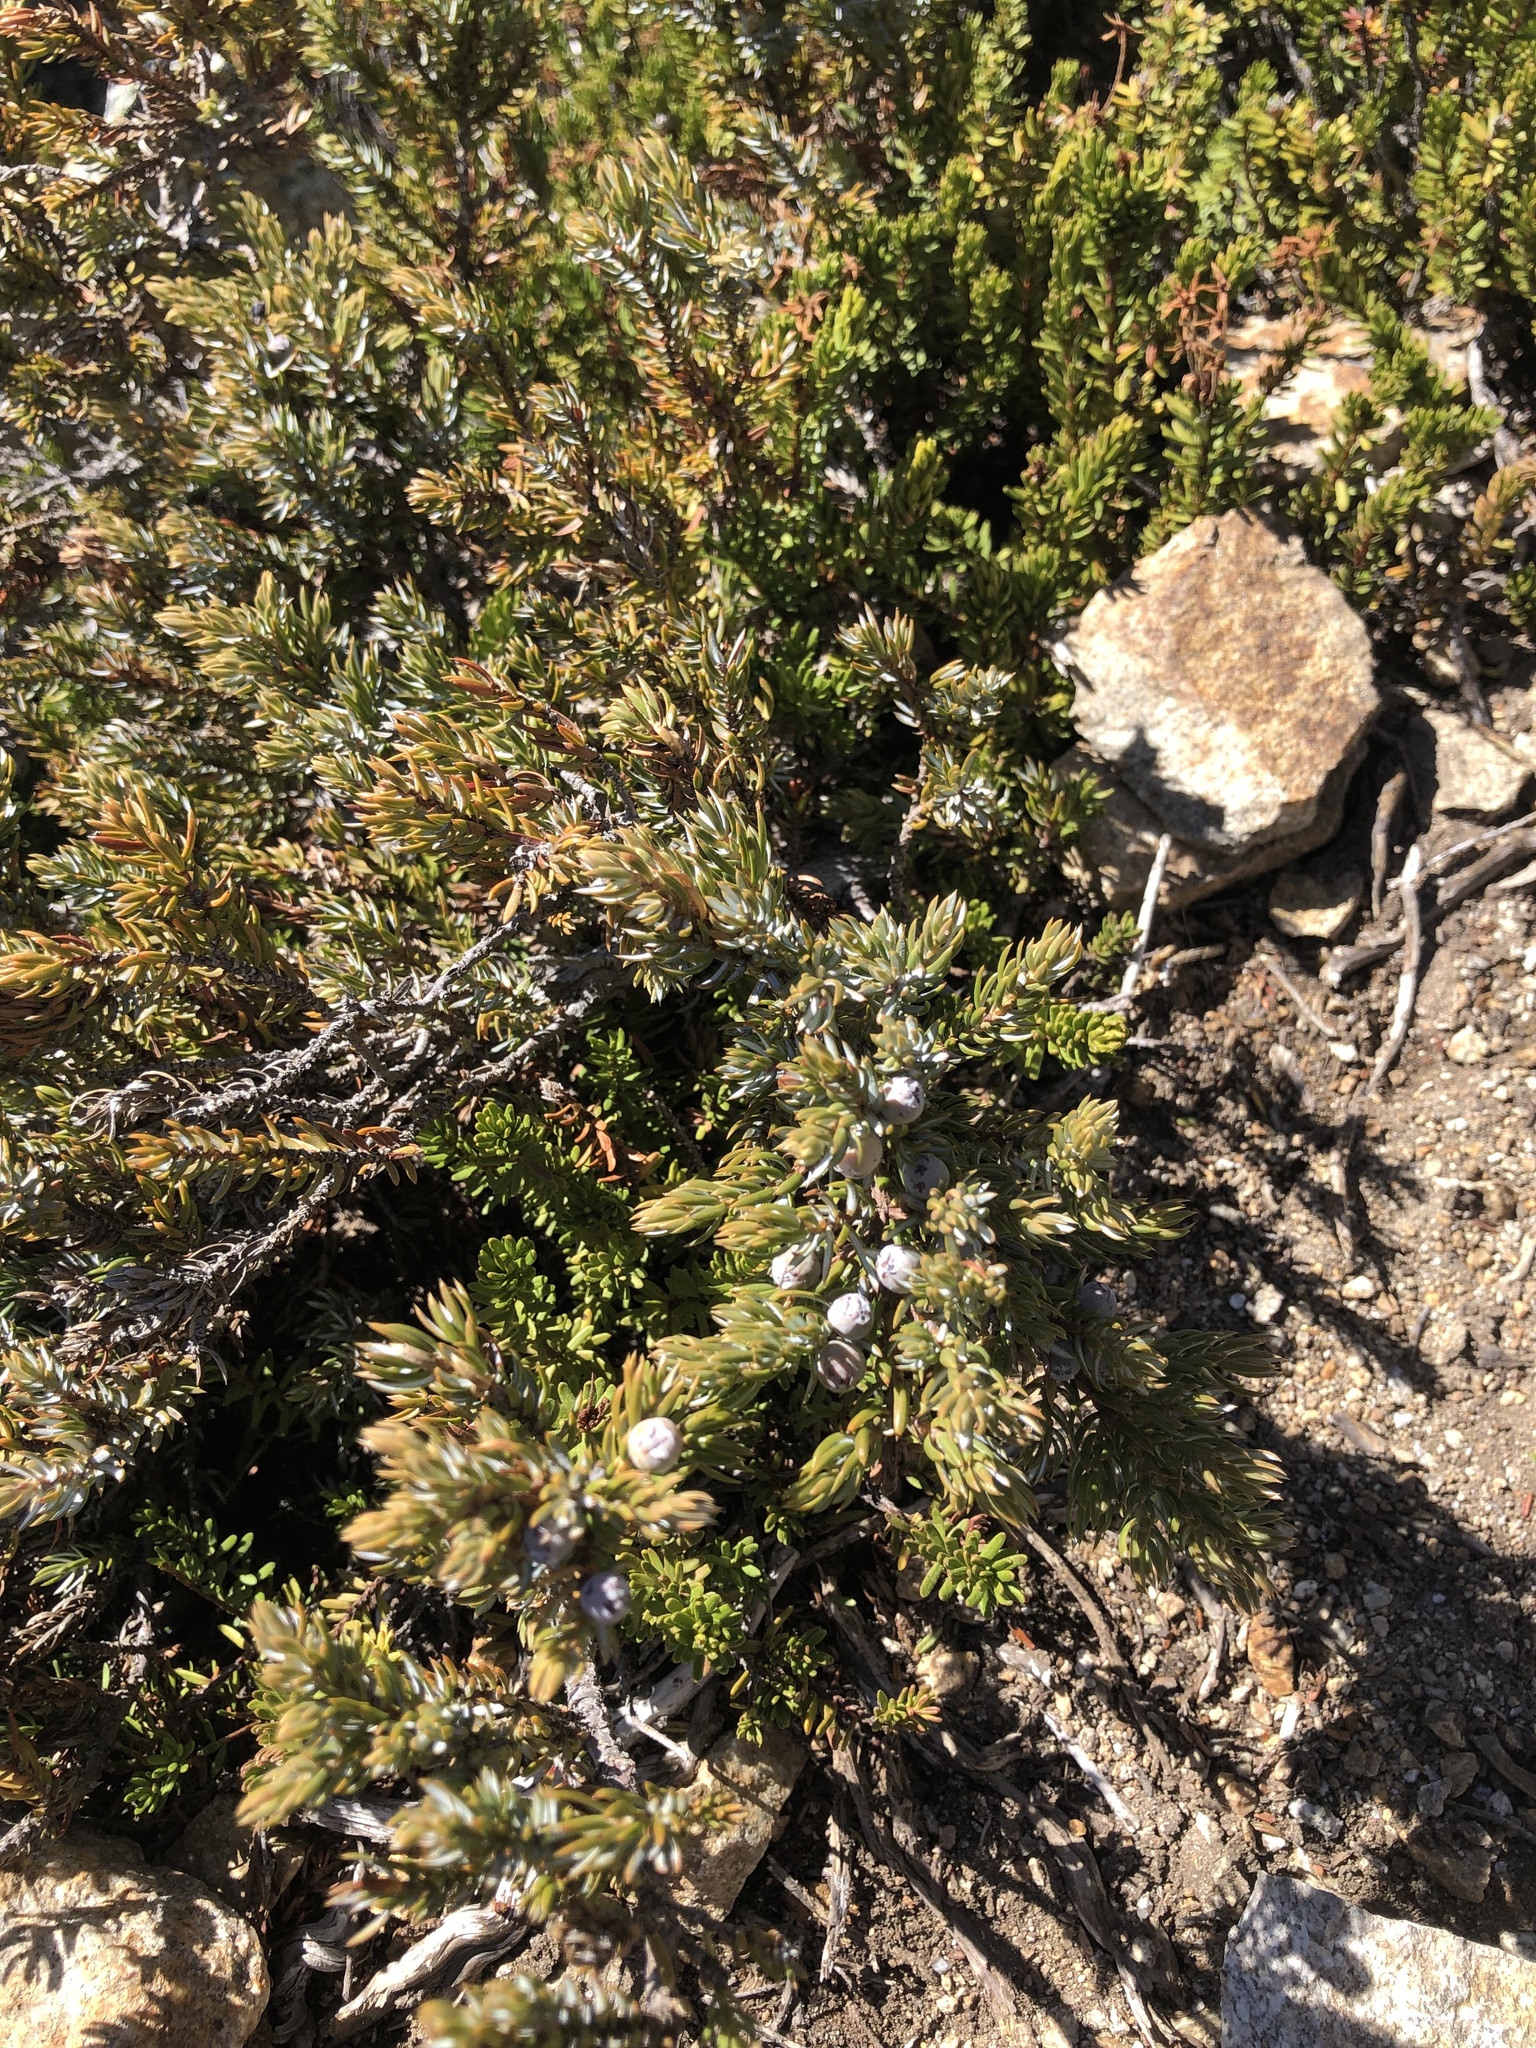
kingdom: Plantae
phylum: Tracheophyta
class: Pinopsida
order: Pinales
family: Cupressaceae
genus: Juniperus
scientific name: Juniperus communis
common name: Common juniper
